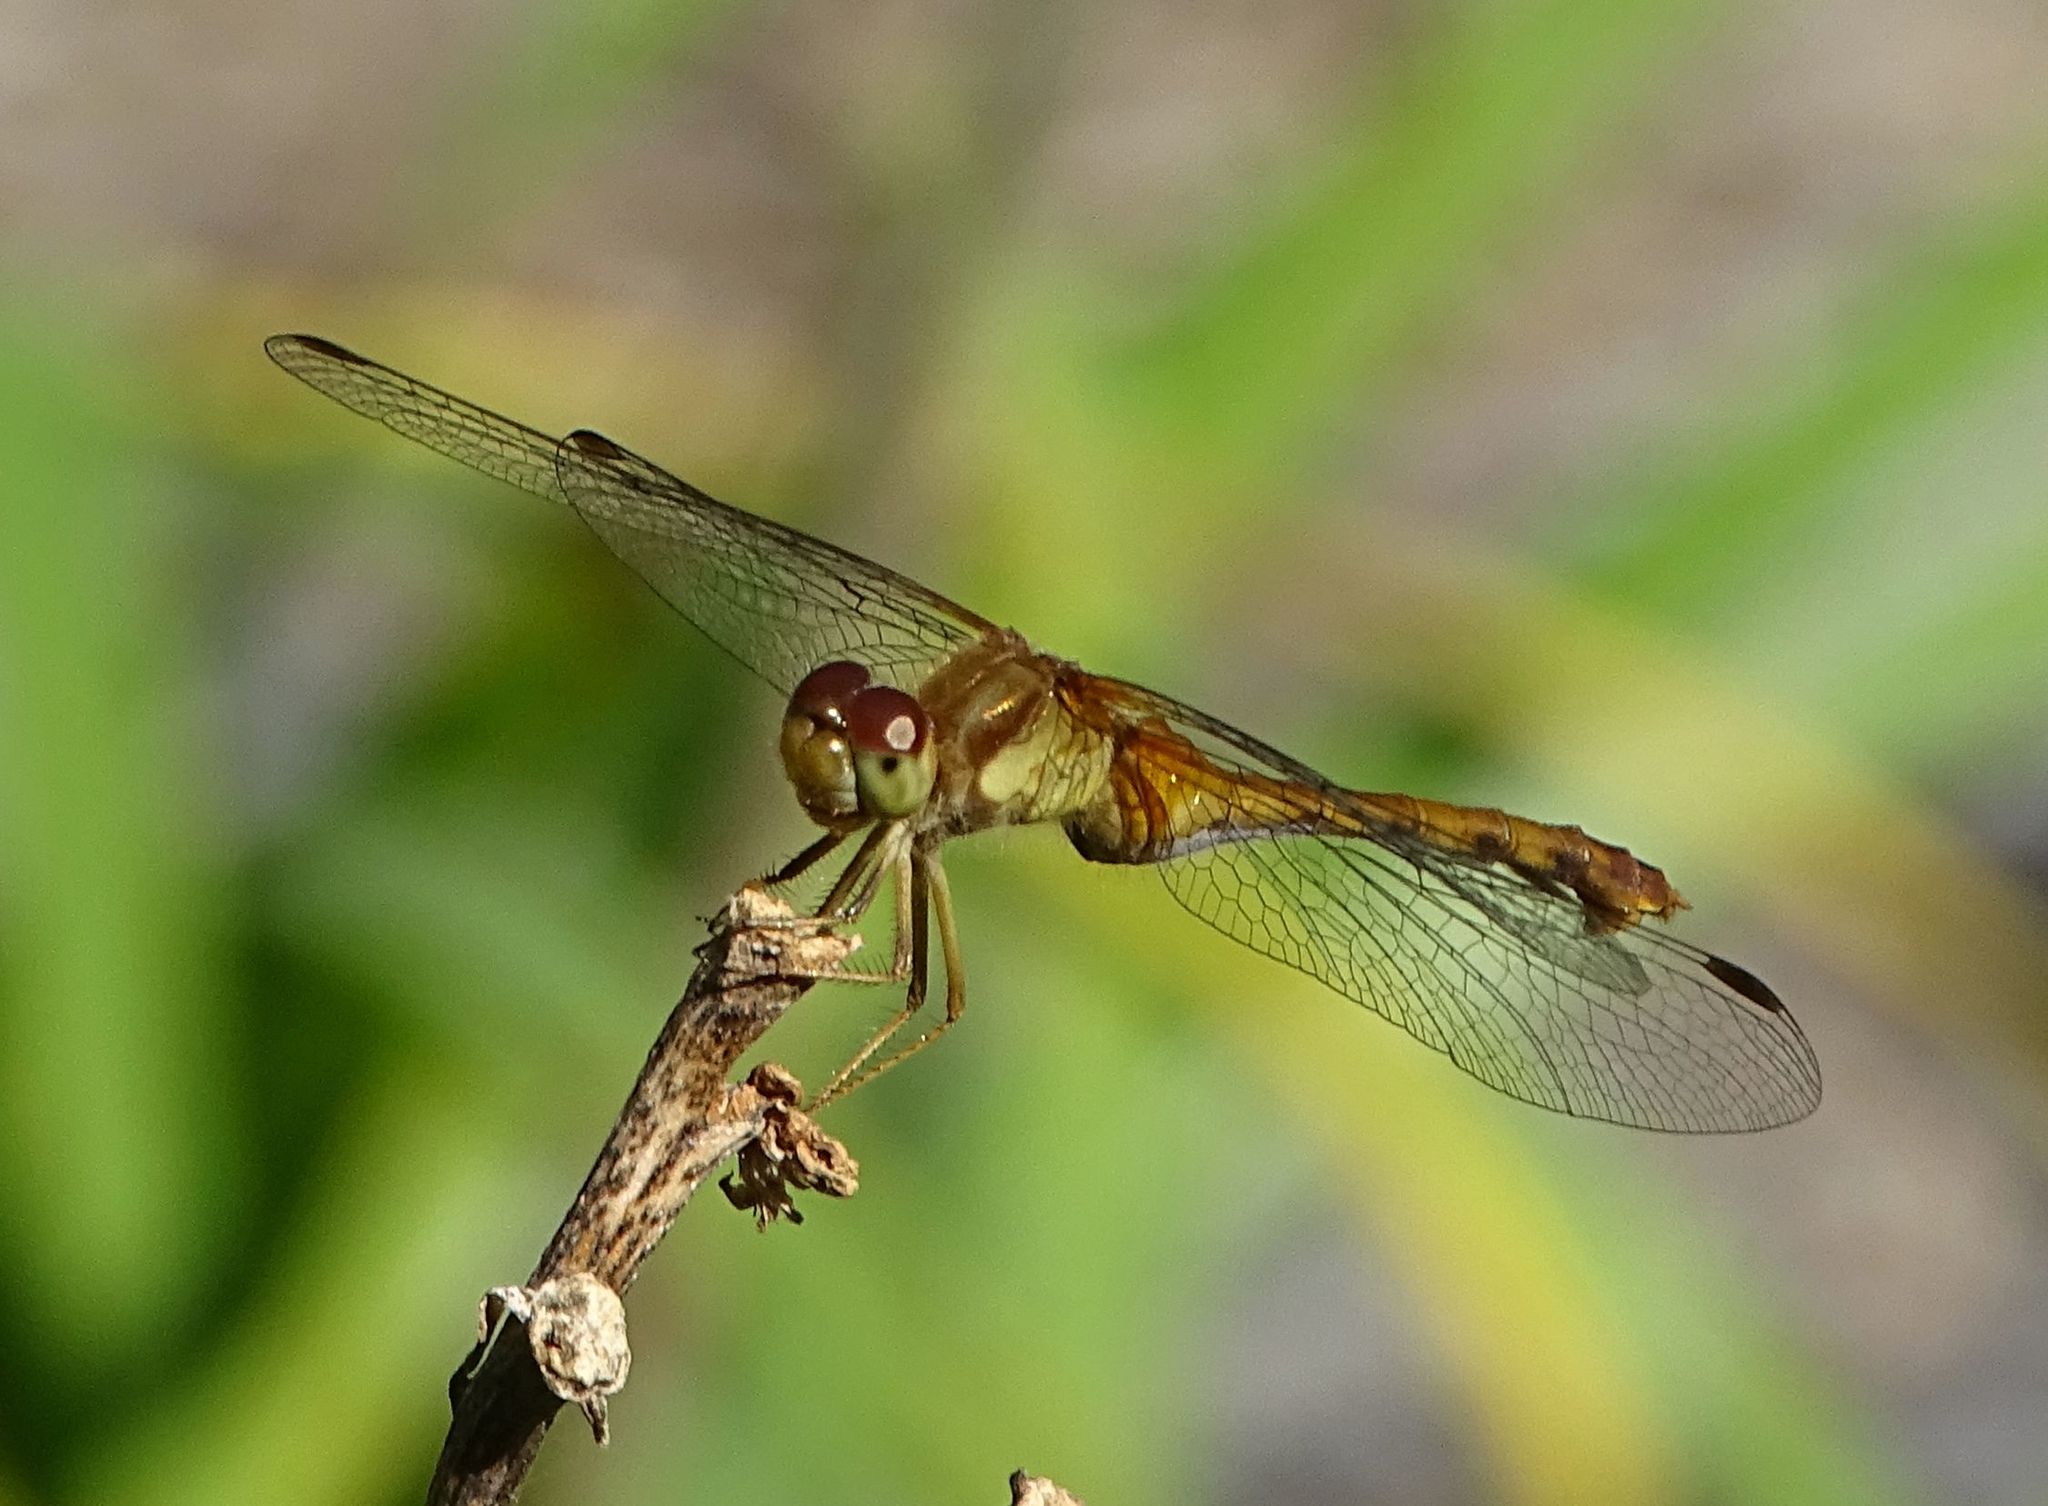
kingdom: Animalia
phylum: Arthropoda
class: Insecta
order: Odonata
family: Libellulidae
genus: Sympetrum
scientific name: Sympetrum vicinum
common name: Autumn meadowhawk
